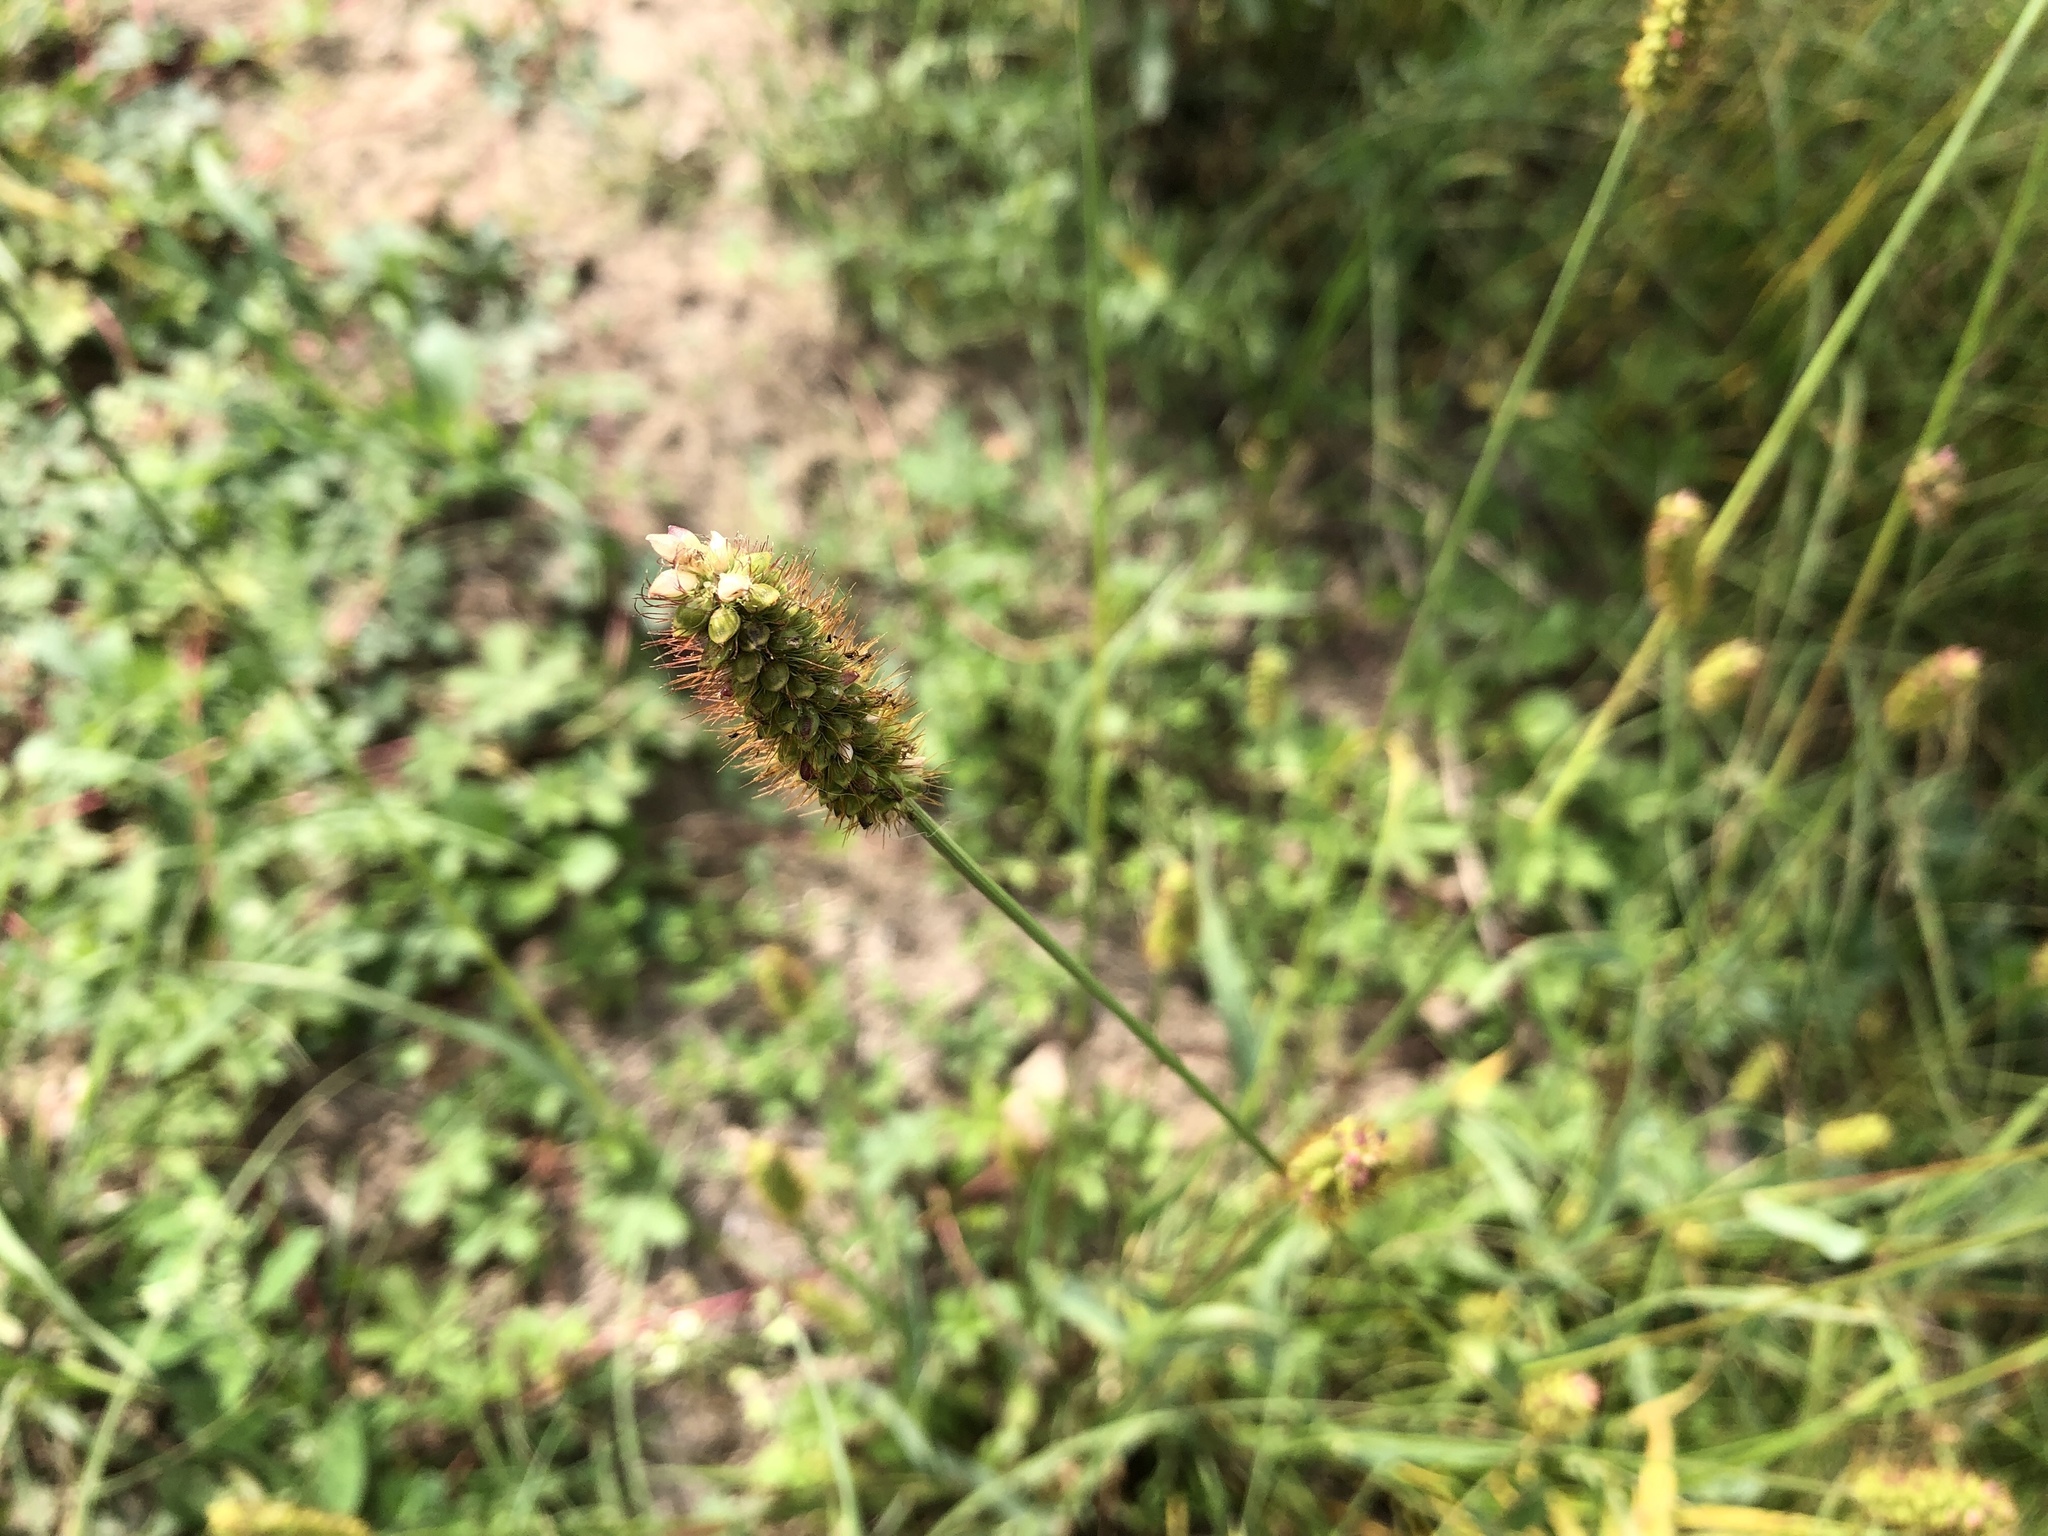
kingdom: Plantae
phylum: Tracheophyta
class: Liliopsida
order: Poales
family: Poaceae
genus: Setaria
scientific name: Setaria pumila
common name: Yellow bristle-grass
